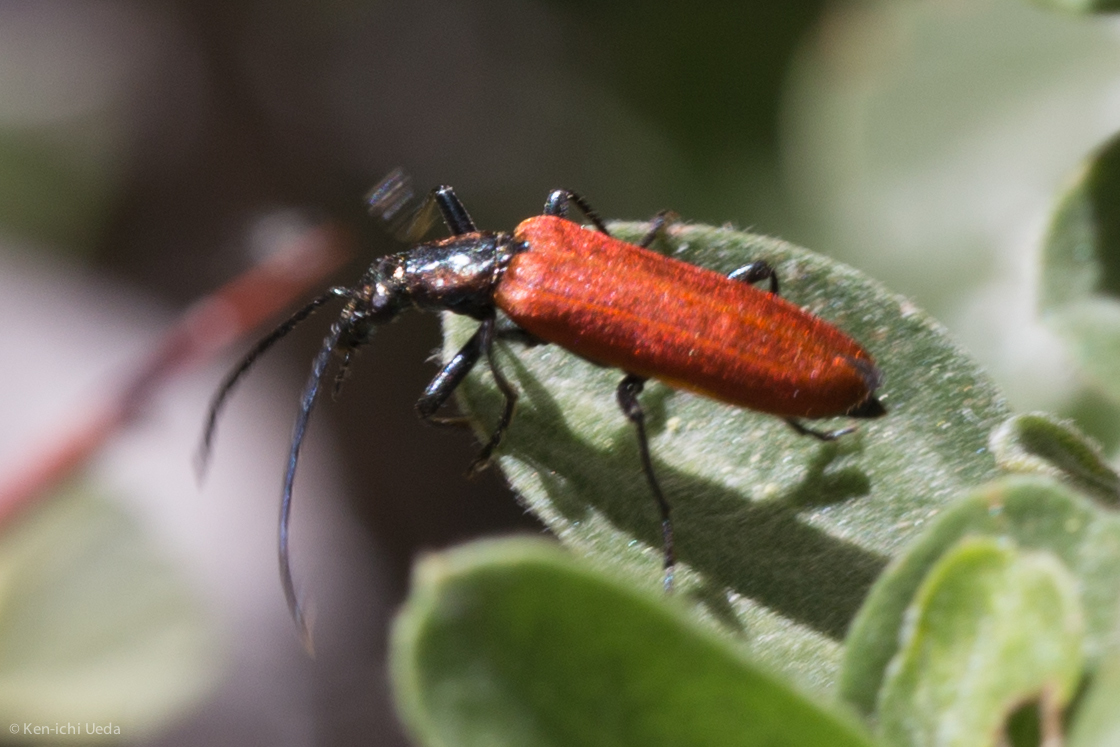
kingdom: Animalia
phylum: Arthropoda
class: Insecta
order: Coleoptera
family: Oedemeridae
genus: Sisenes
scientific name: Sisenes championi
